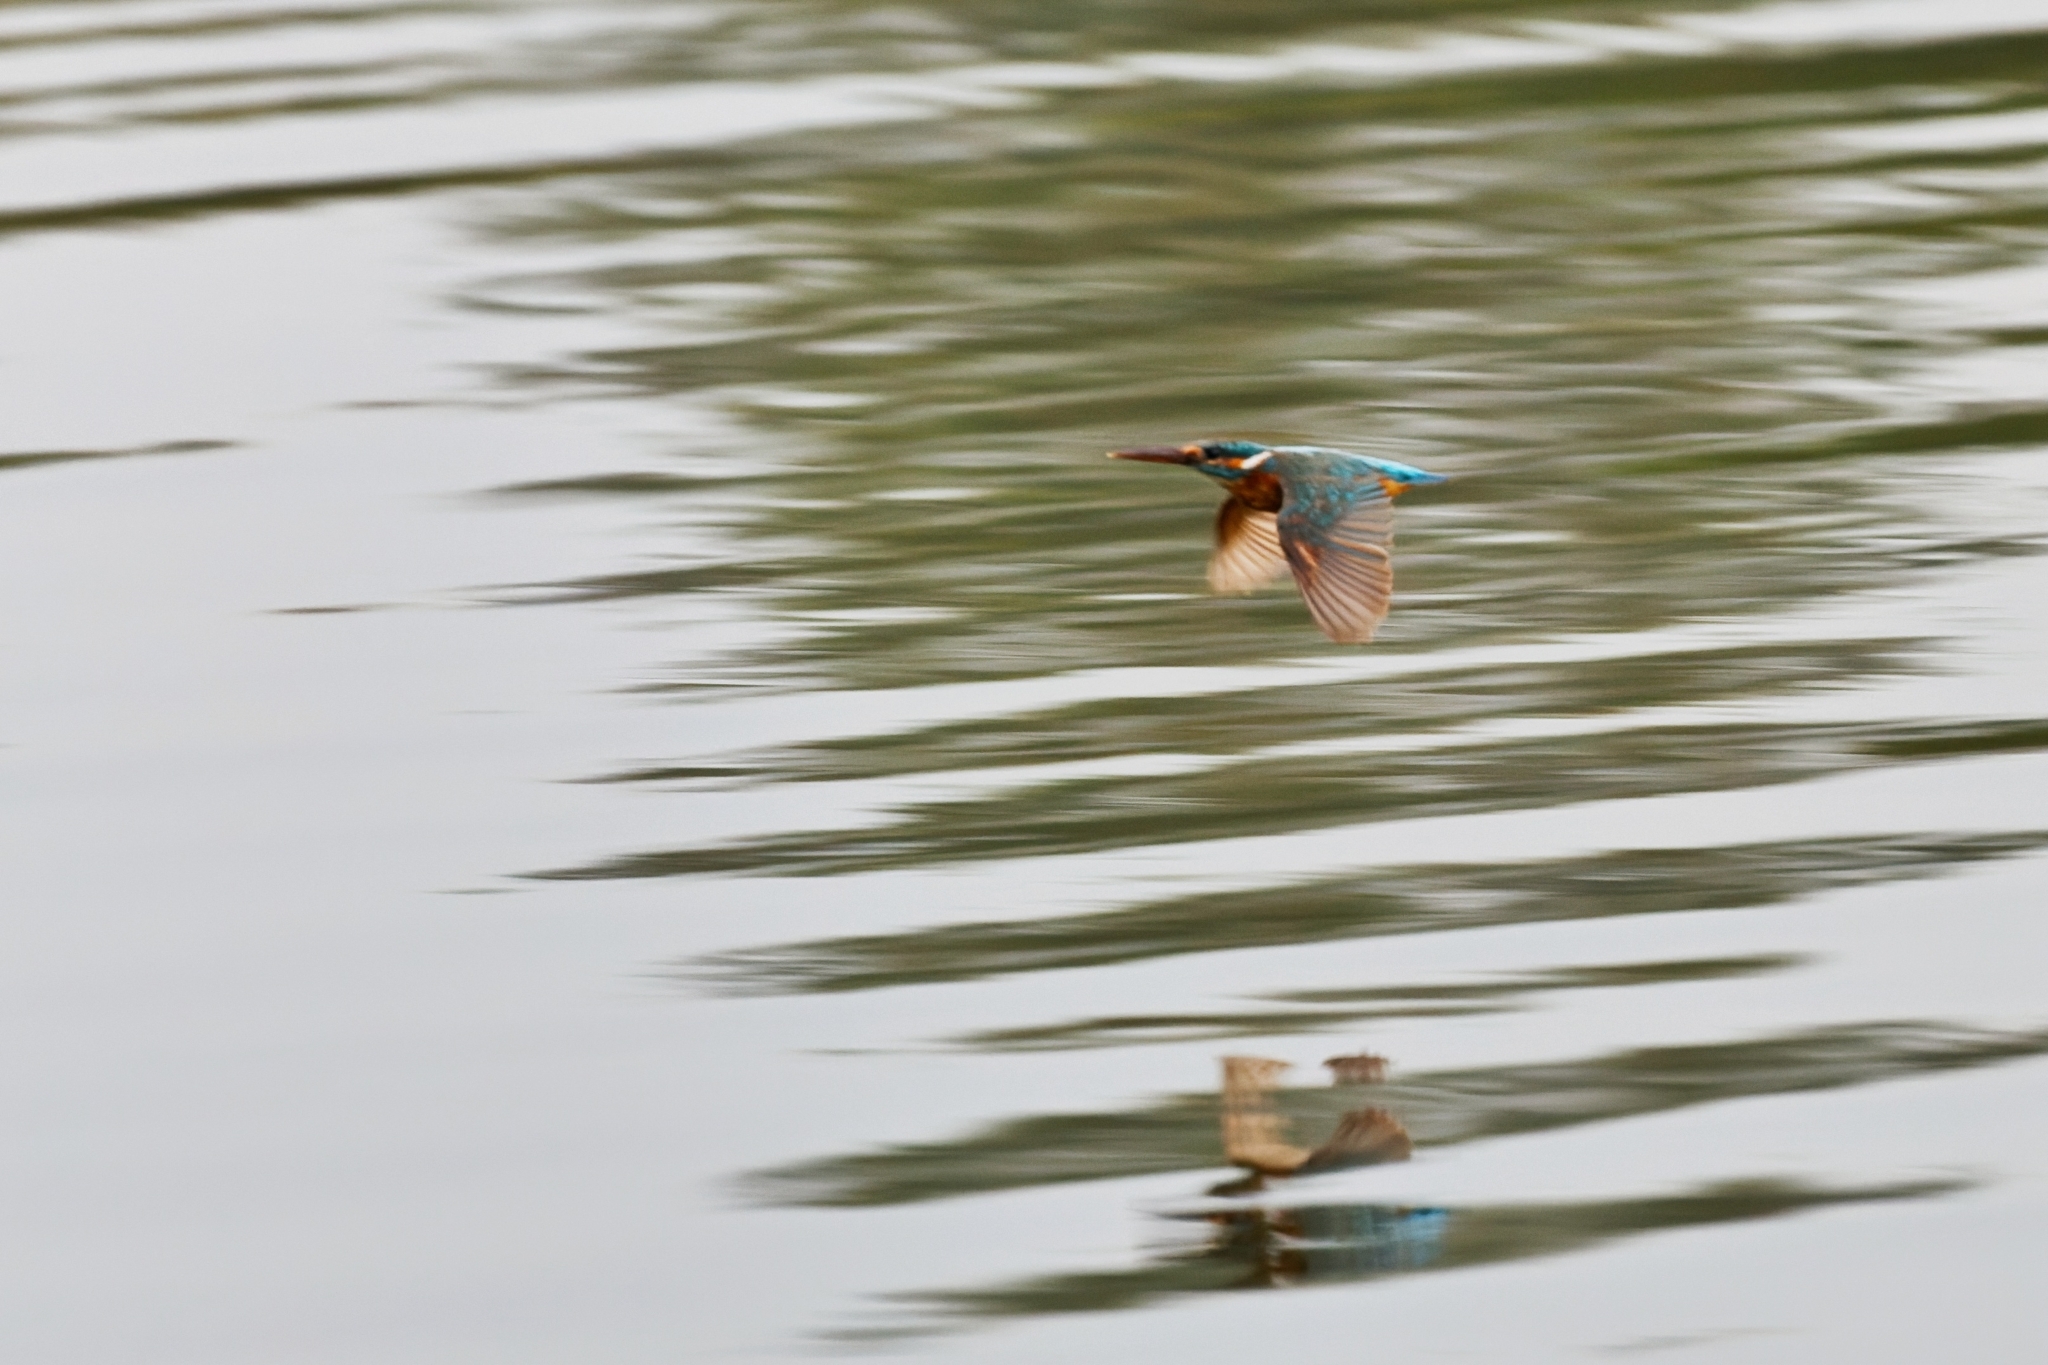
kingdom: Animalia
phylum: Chordata
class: Aves
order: Coraciiformes
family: Alcedinidae
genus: Alcedo
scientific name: Alcedo atthis
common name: Common kingfisher
